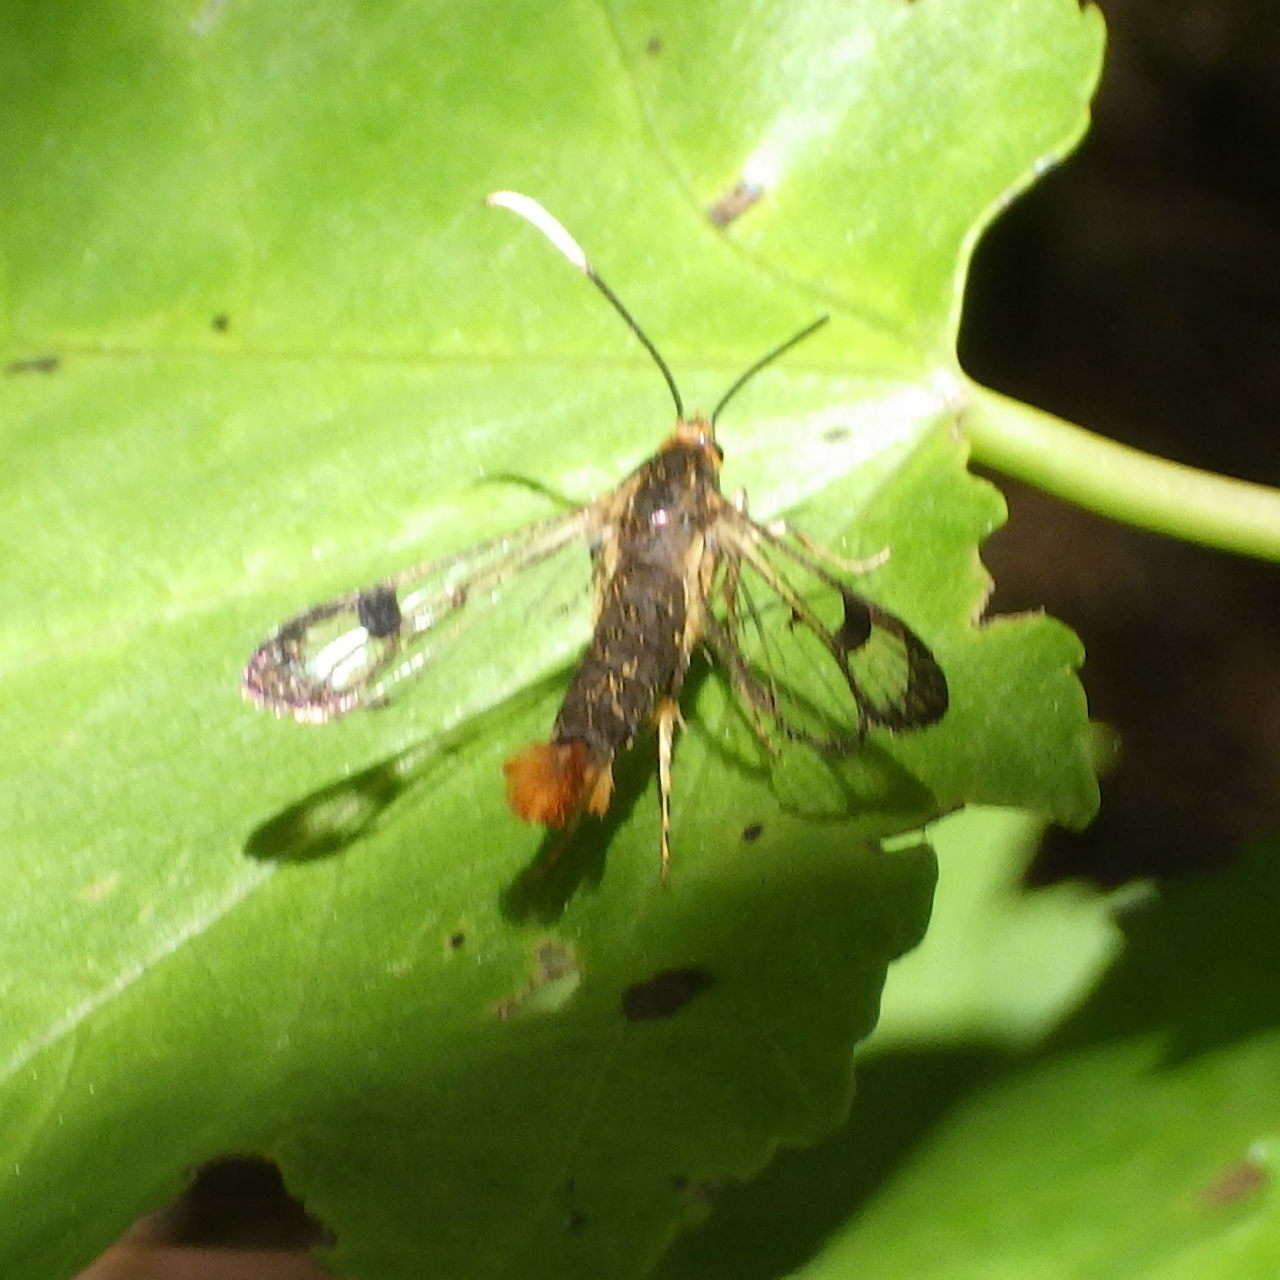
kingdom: Animalia
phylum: Arthropoda
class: Insecta
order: Lepidoptera
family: Sesiidae
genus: Synanthedon
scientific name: Synanthedon acerrubri
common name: Maple clearwing moth
